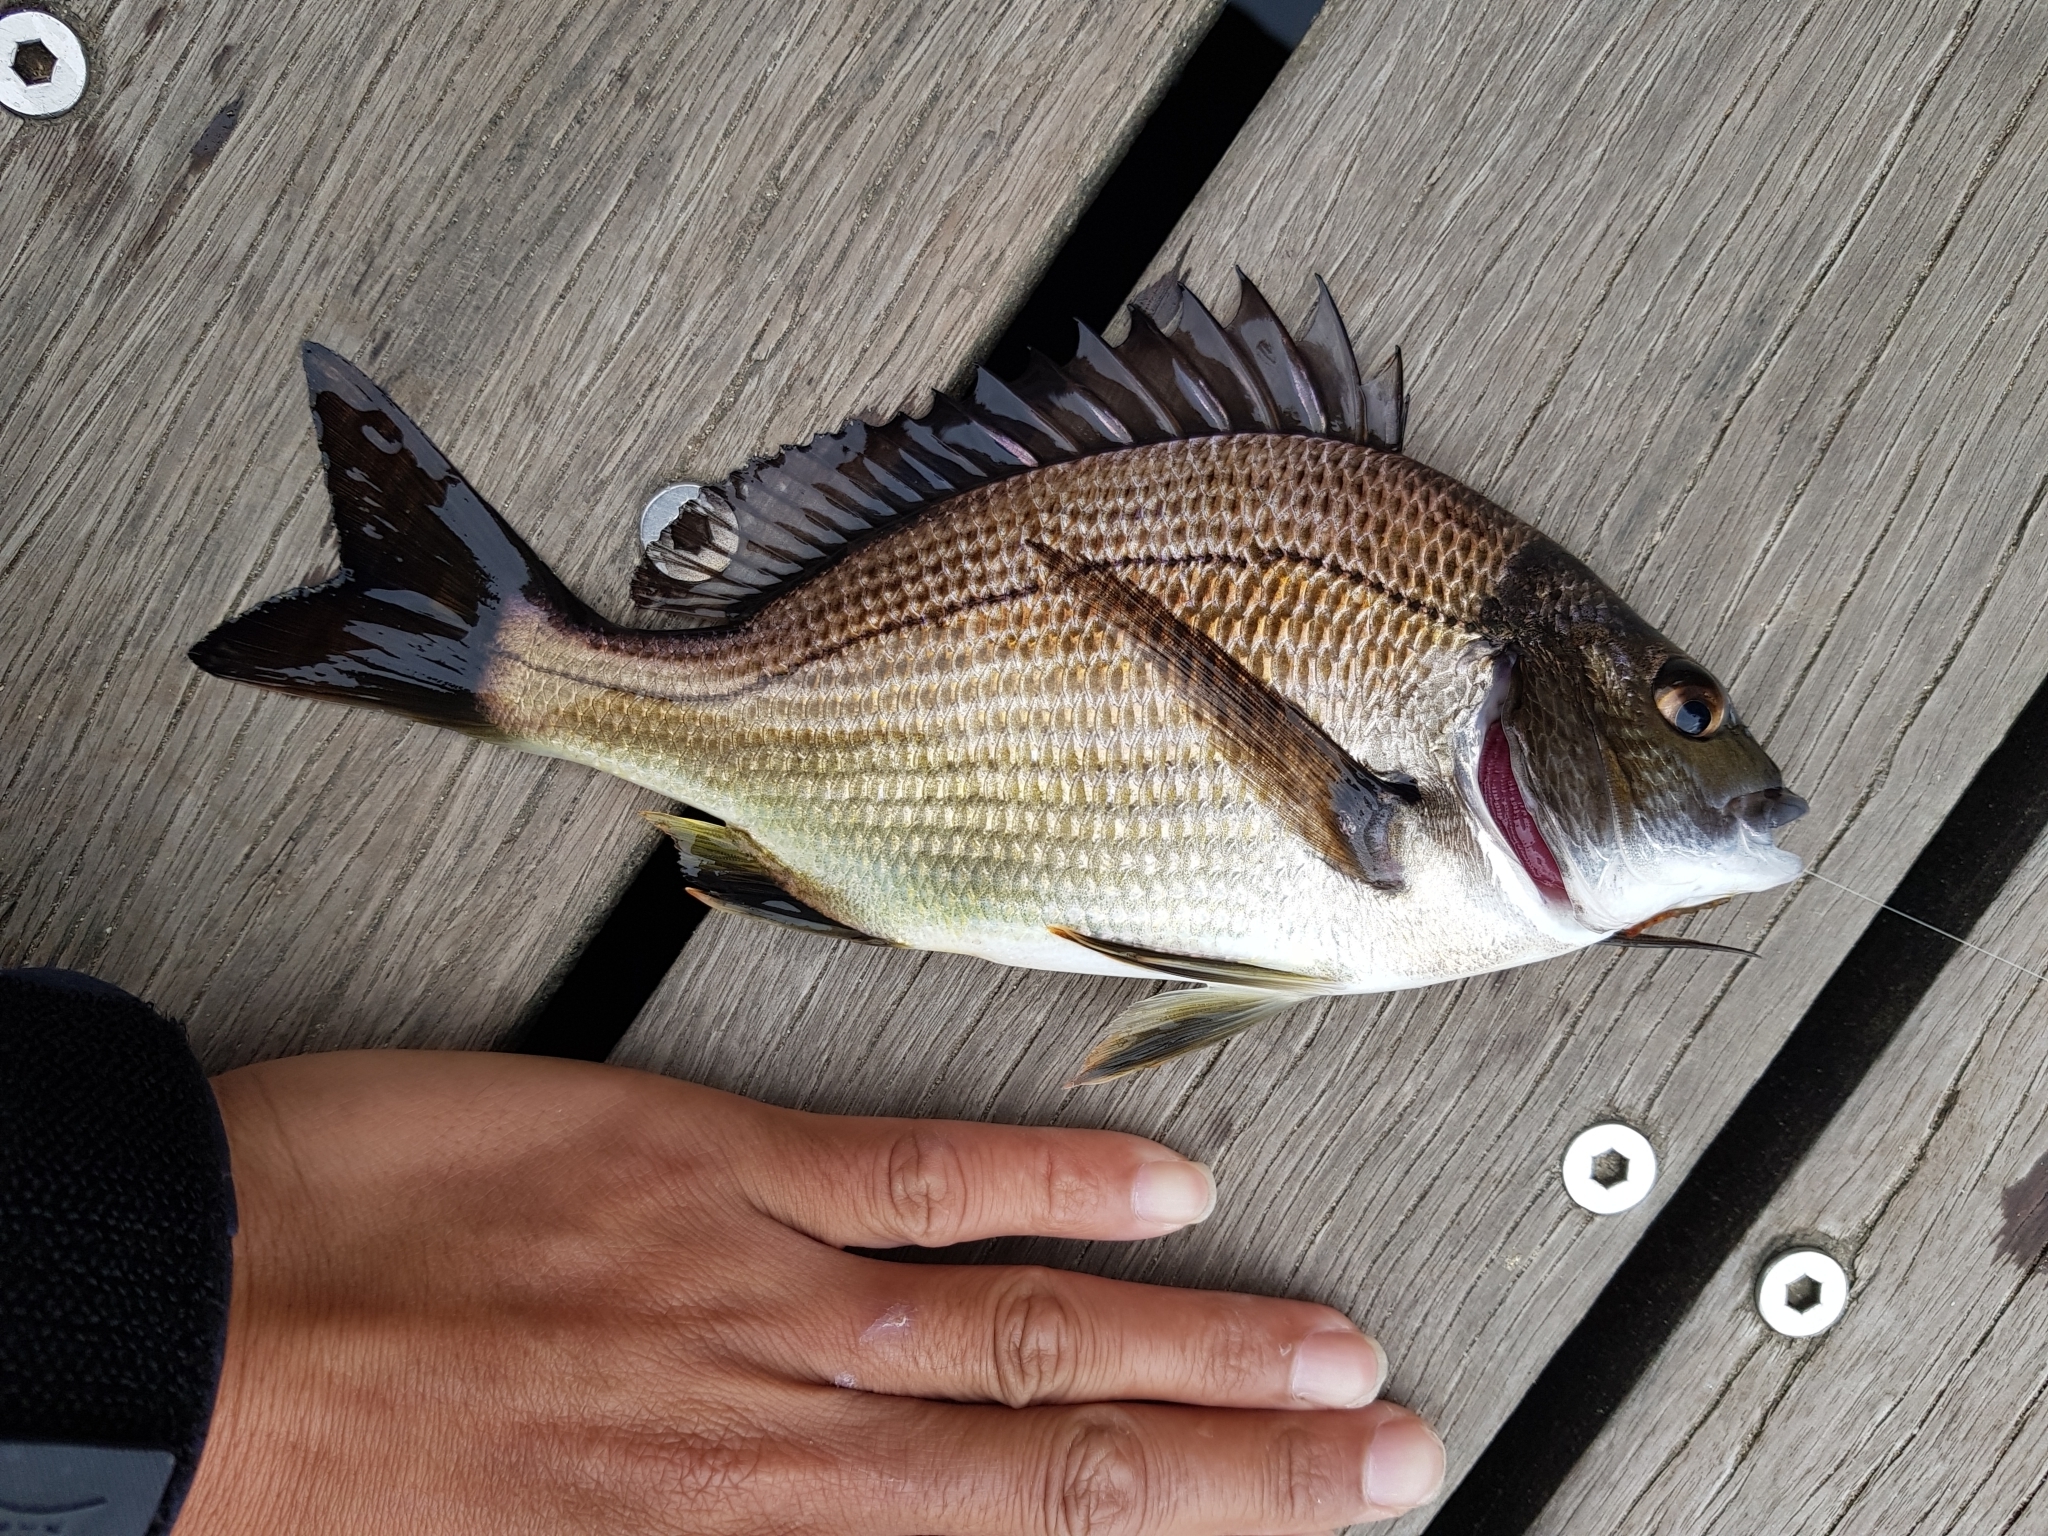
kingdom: Animalia
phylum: Chordata
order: Perciformes
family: Sparidae
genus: Acanthopagrus
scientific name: Acanthopagrus butcheri
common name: Black bream
